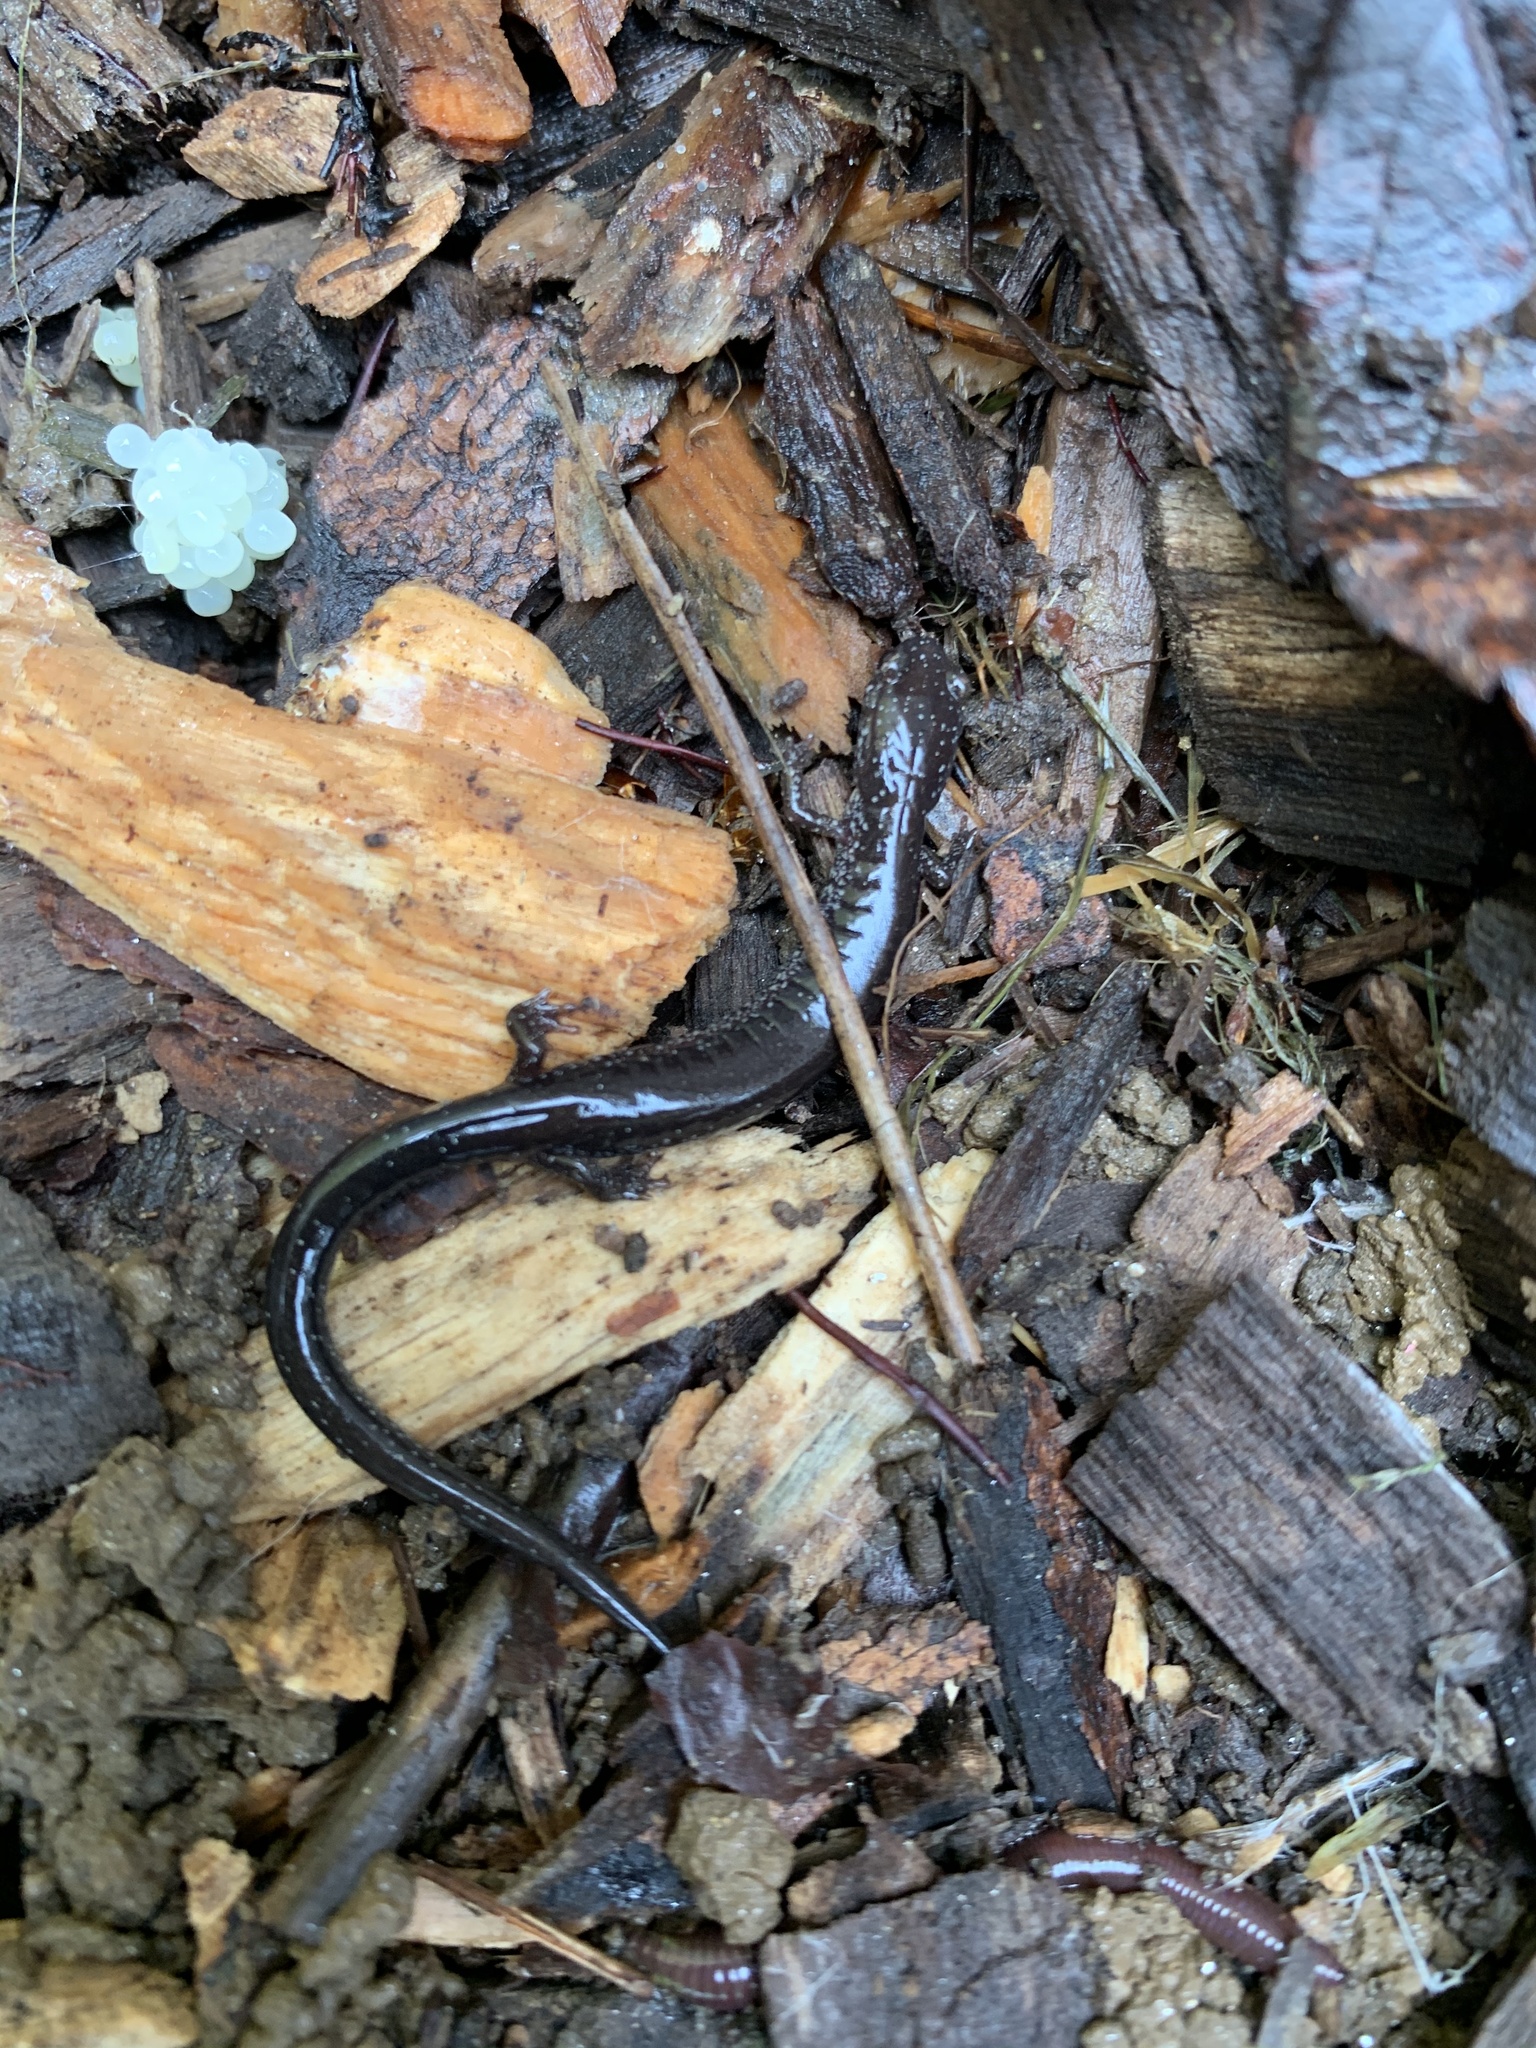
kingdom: Animalia
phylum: Chordata
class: Amphibia
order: Caudata
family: Plethodontidae
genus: Plethodon
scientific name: Plethodon cinereus
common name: Redback salamander
